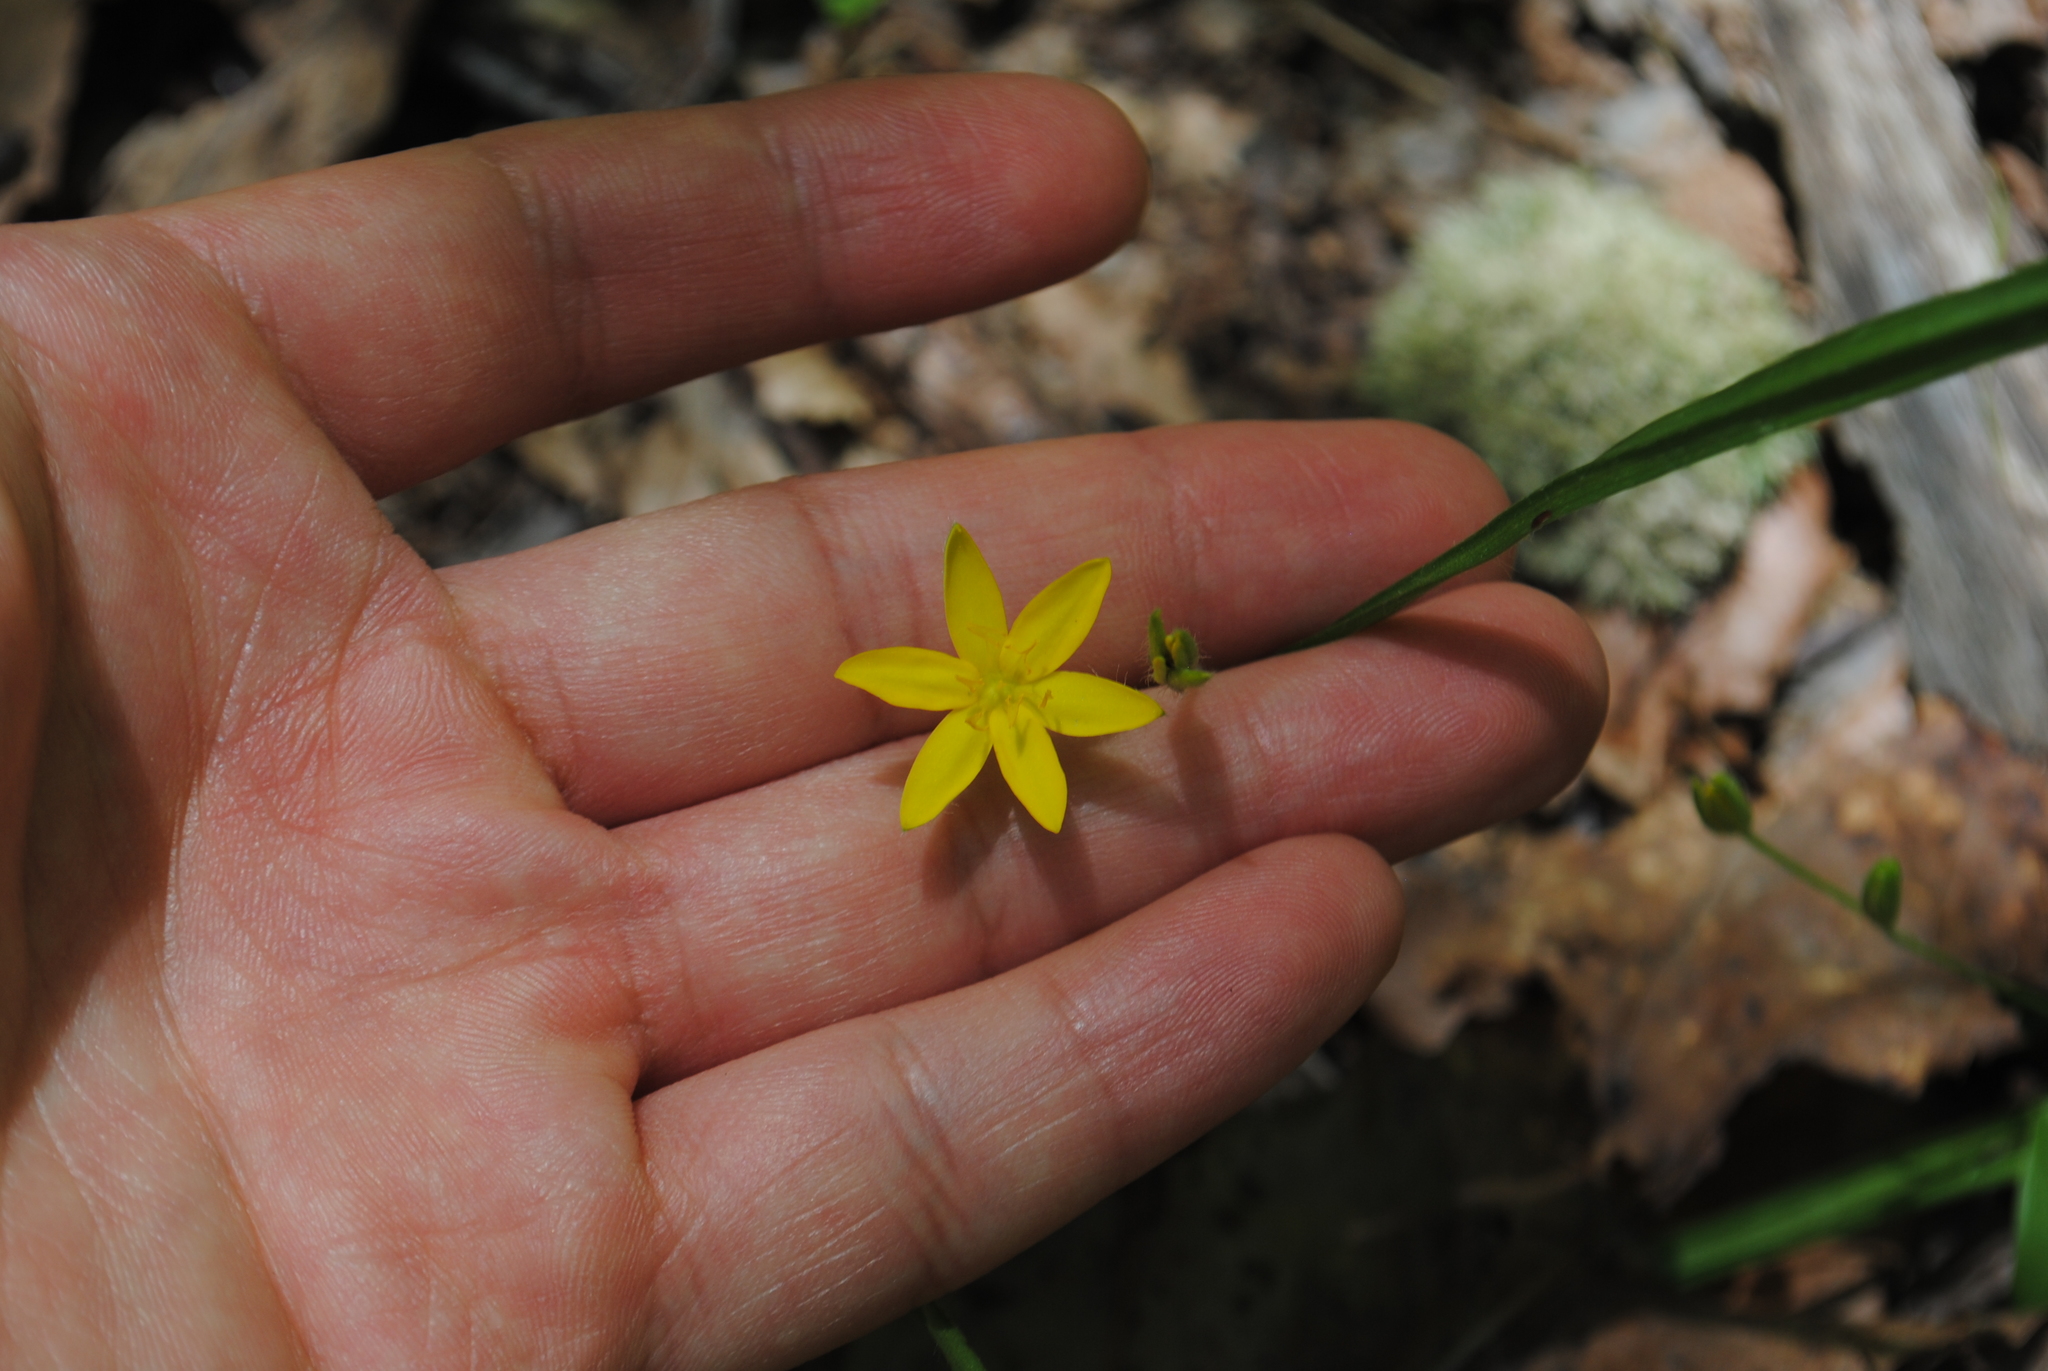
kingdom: Plantae
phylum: Tracheophyta
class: Liliopsida
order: Asparagales
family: Hypoxidaceae
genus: Hypoxis
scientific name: Hypoxis hirsuta
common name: Common goldstar
